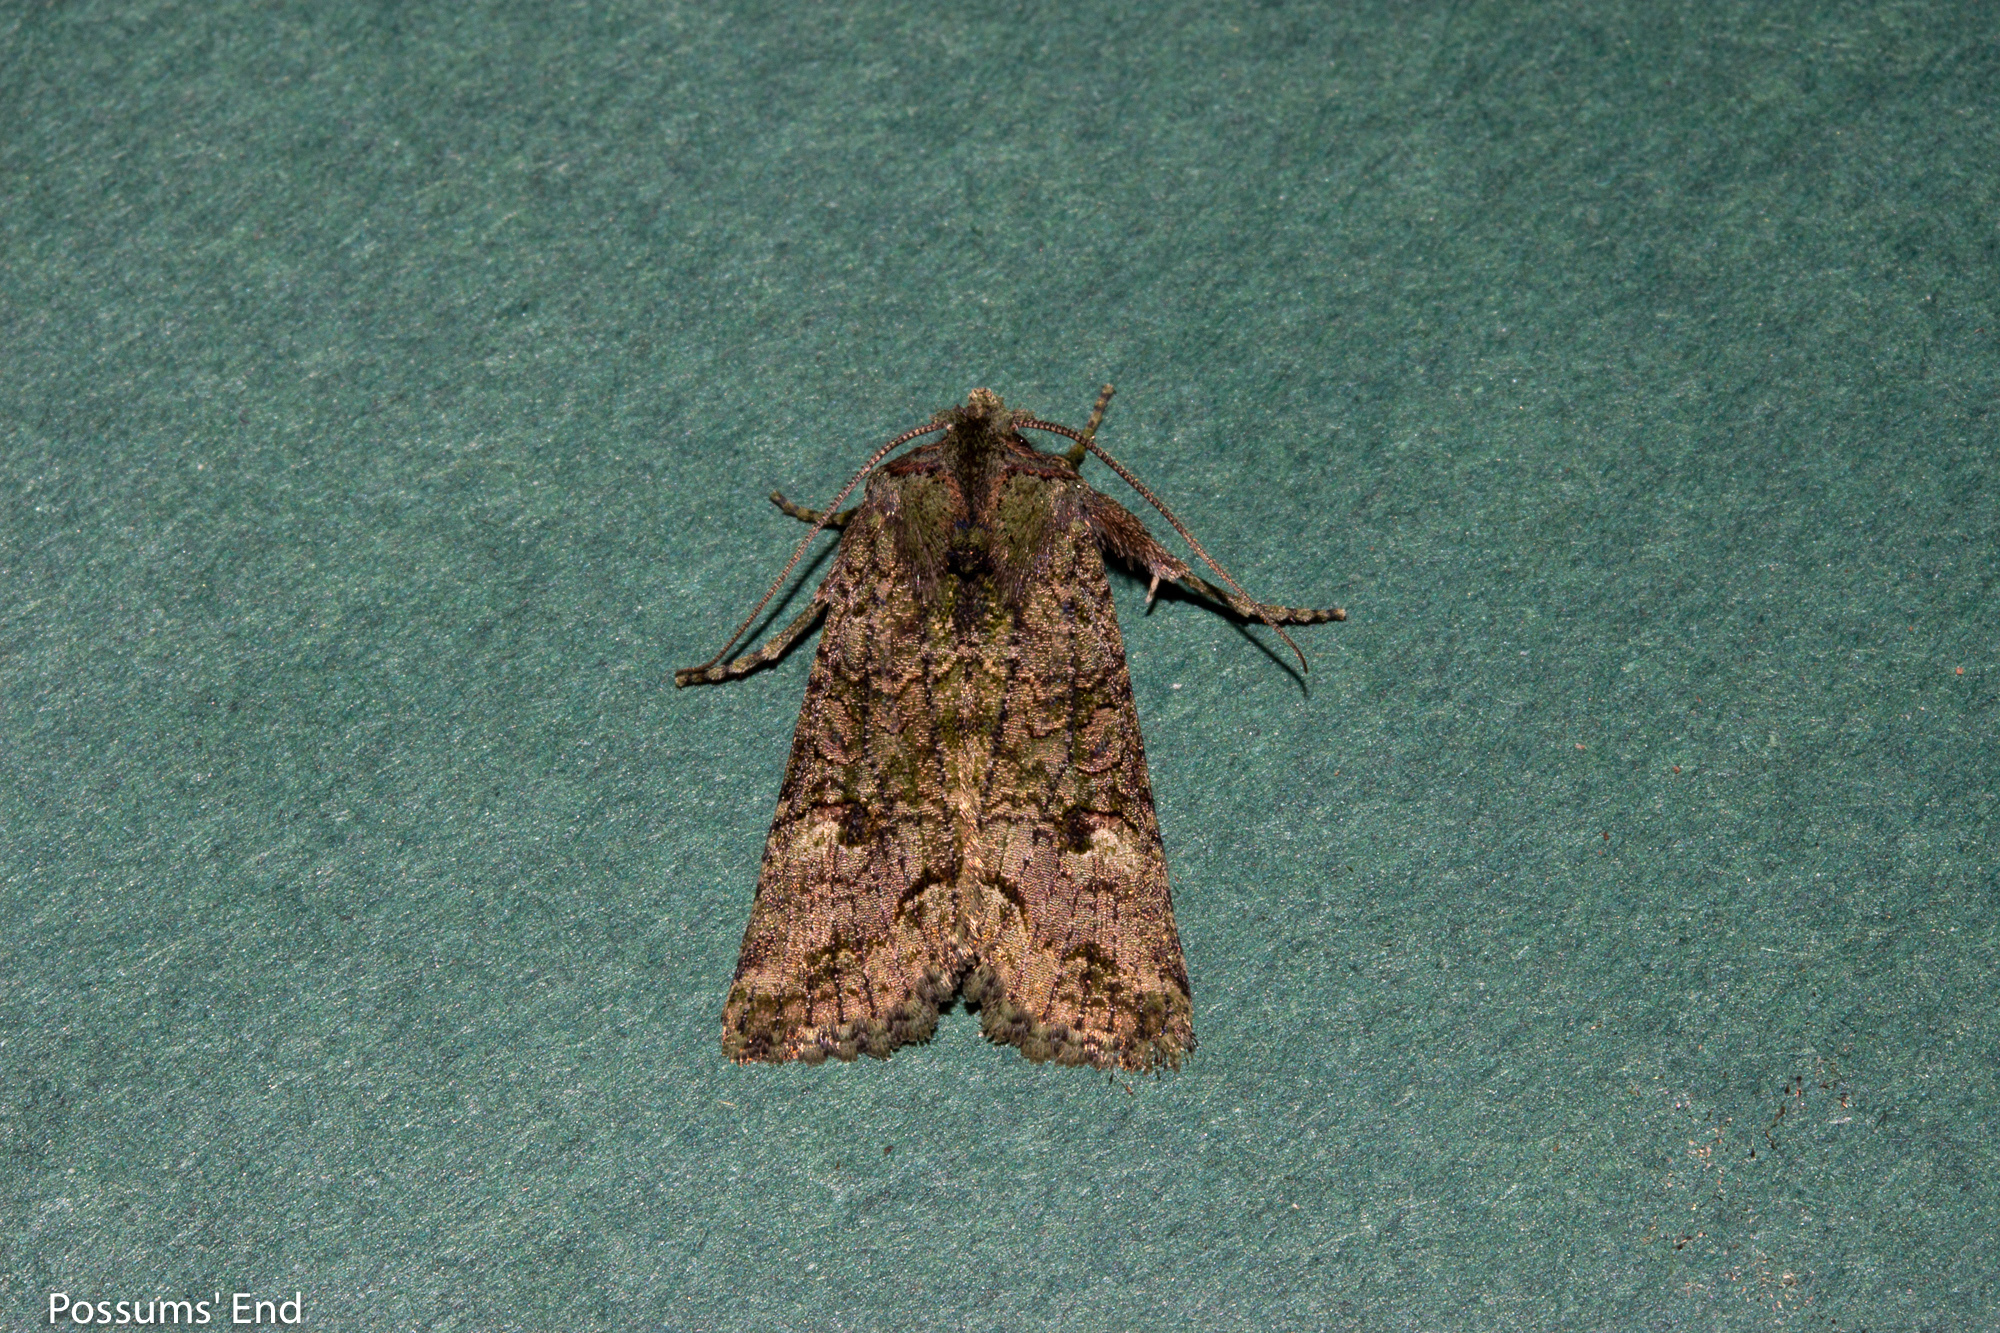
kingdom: Animalia
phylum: Arthropoda
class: Insecta
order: Lepidoptera
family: Noctuidae
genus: Meterana
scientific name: Meterana levis
